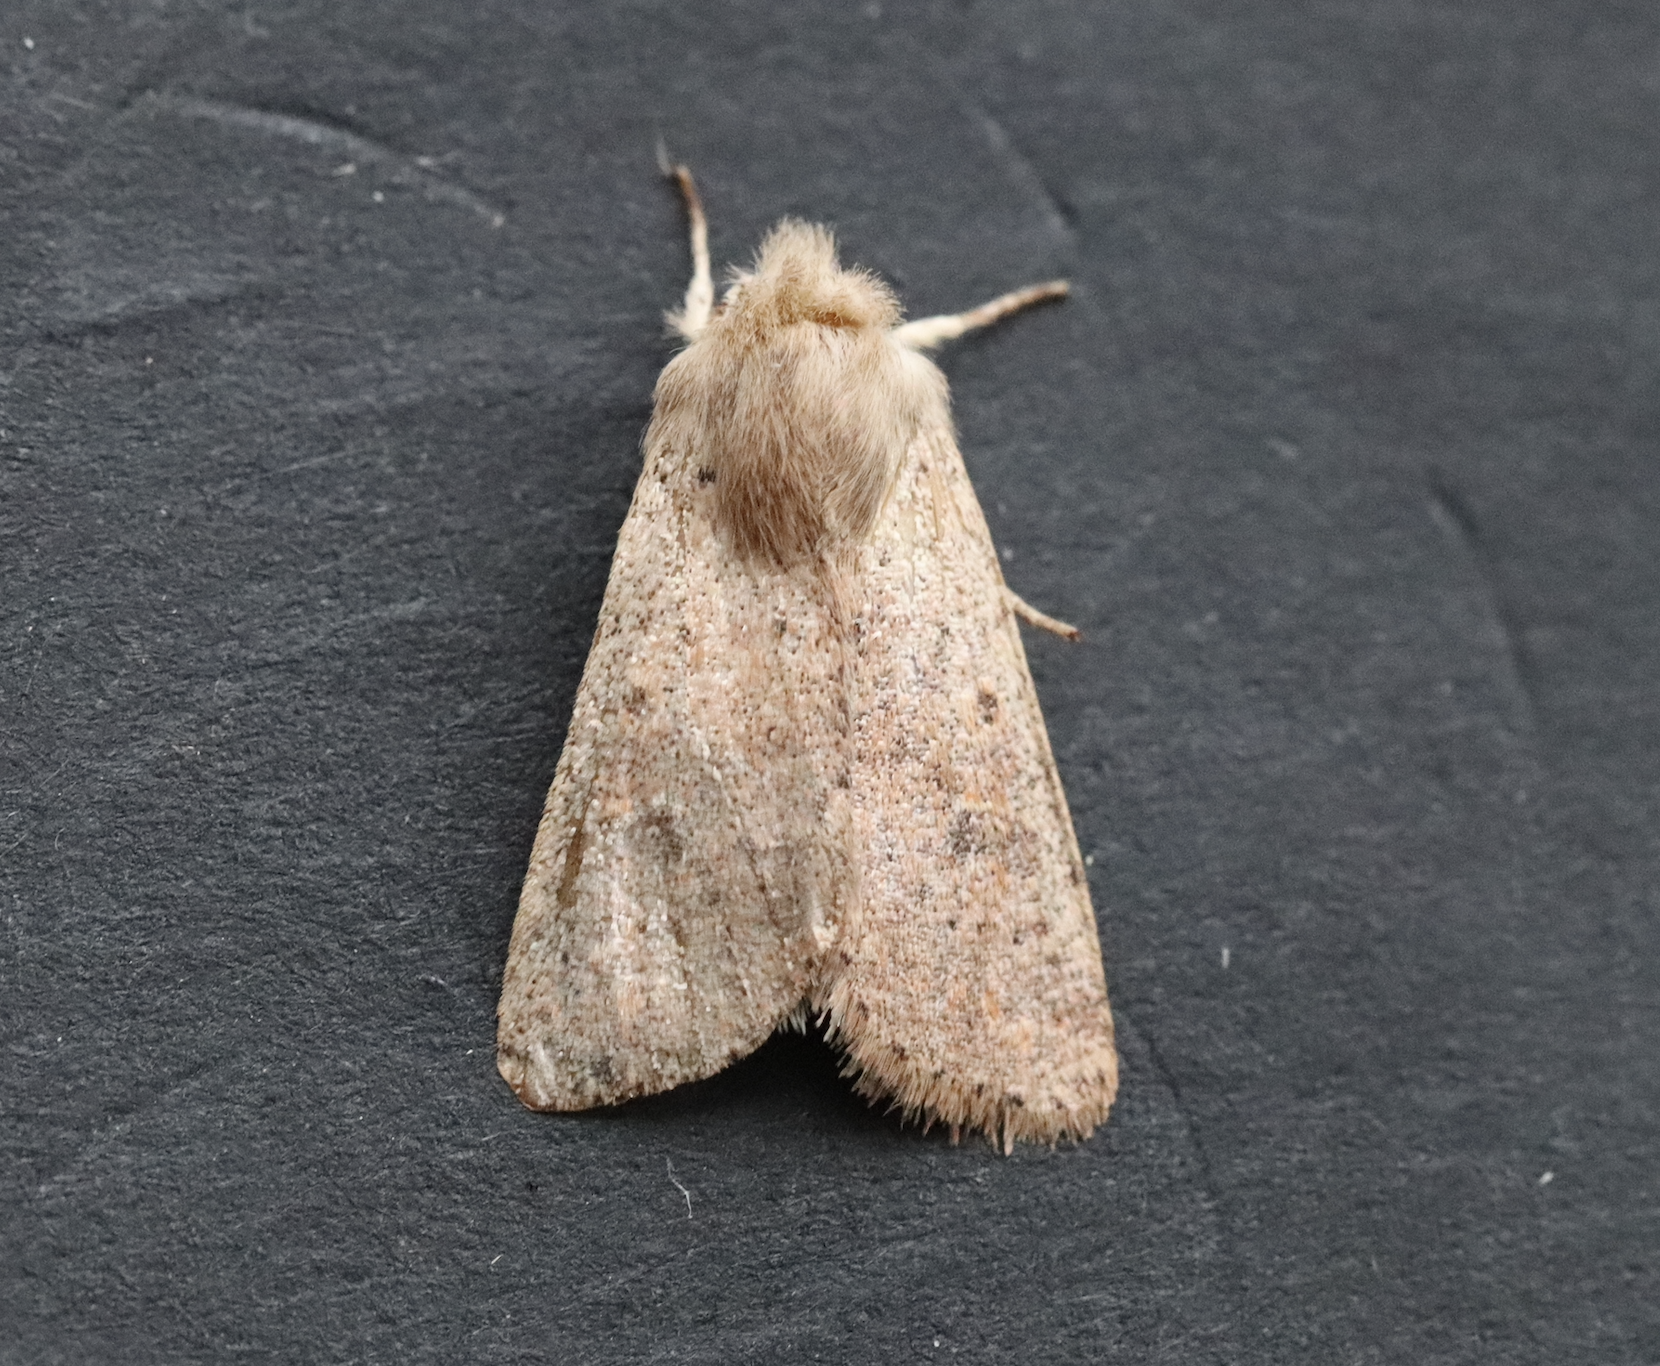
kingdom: Animalia
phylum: Arthropoda
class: Insecta
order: Lepidoptera
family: Noctuidae
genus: Orthosia
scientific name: Orthosia cruda
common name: Small quaker
